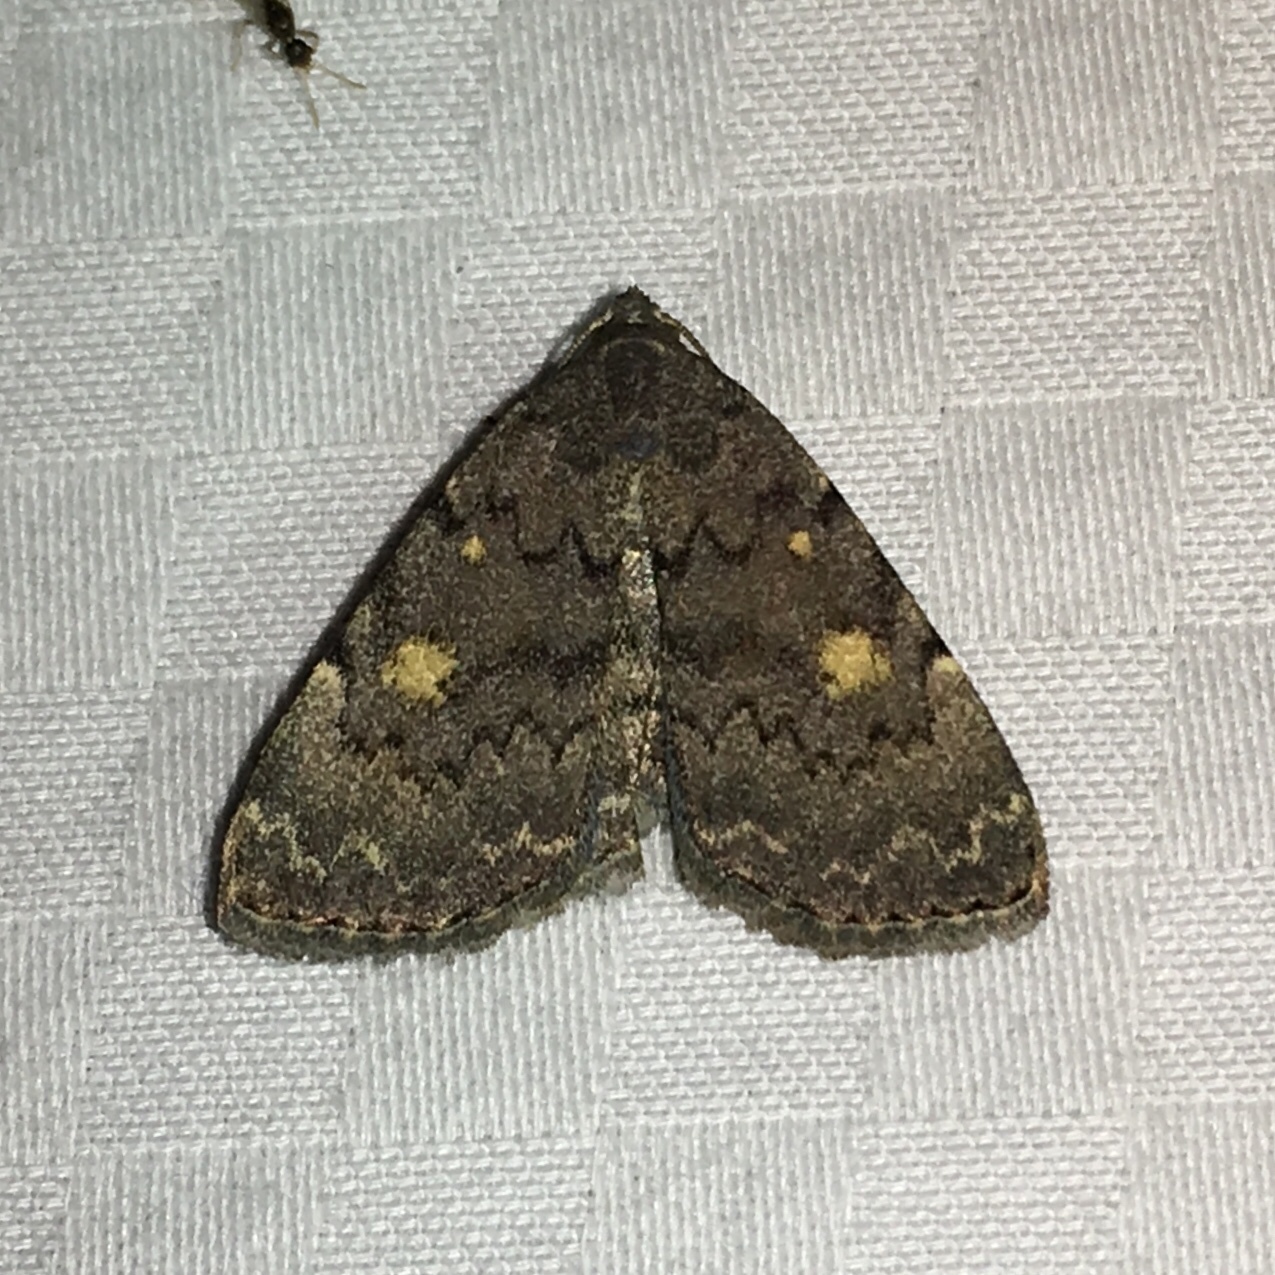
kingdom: Animalia
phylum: Arthropoda
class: Insecta
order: Lepidoptera
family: Erebidae
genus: Idia
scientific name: Idia aemula
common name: Common idia moth
